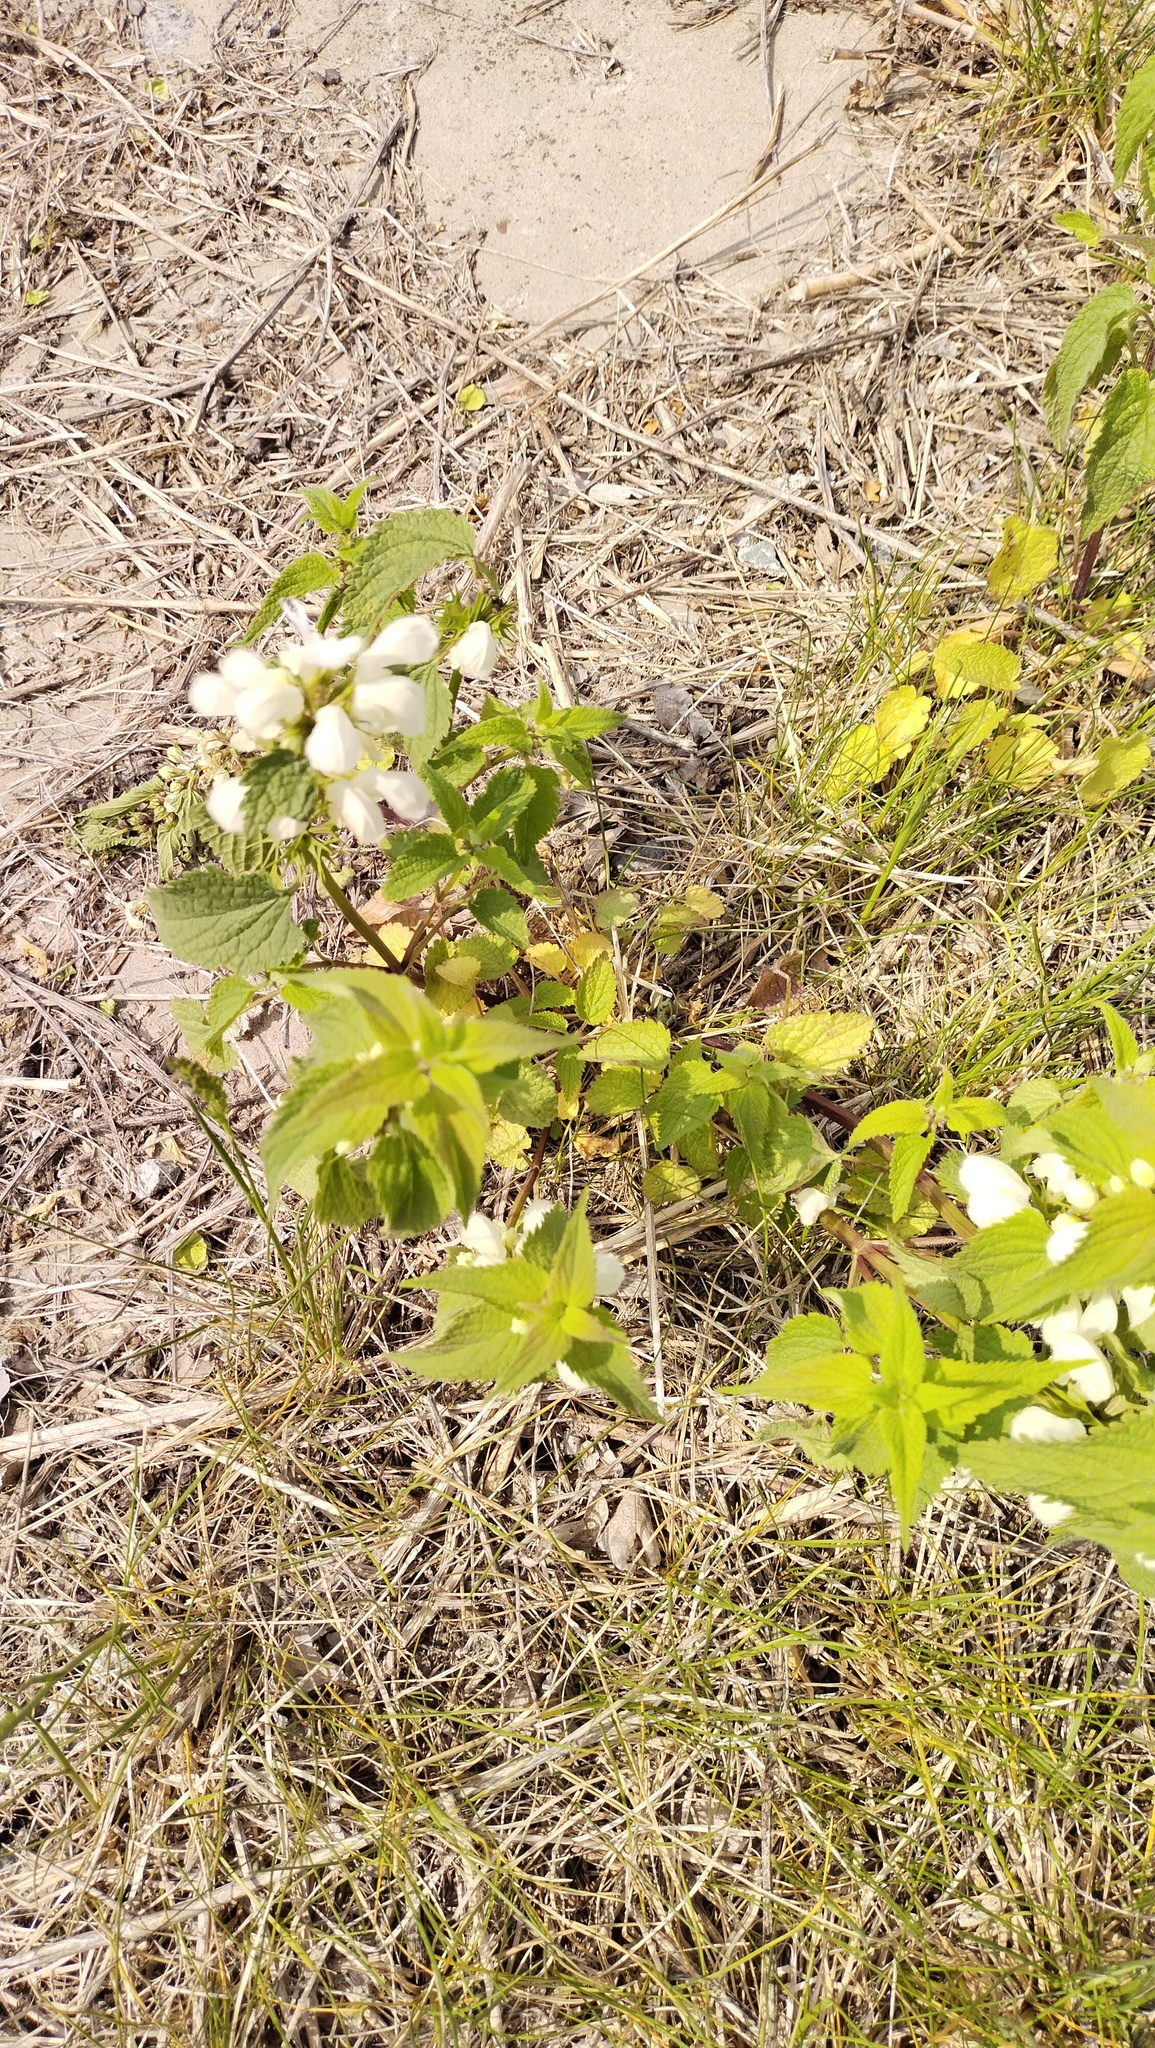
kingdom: Plantae
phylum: Tracheophyta
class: Magnoliopsida
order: Lamiales
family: Lamiaceae
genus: Lamium
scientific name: Lamium album
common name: White dead-nettle
